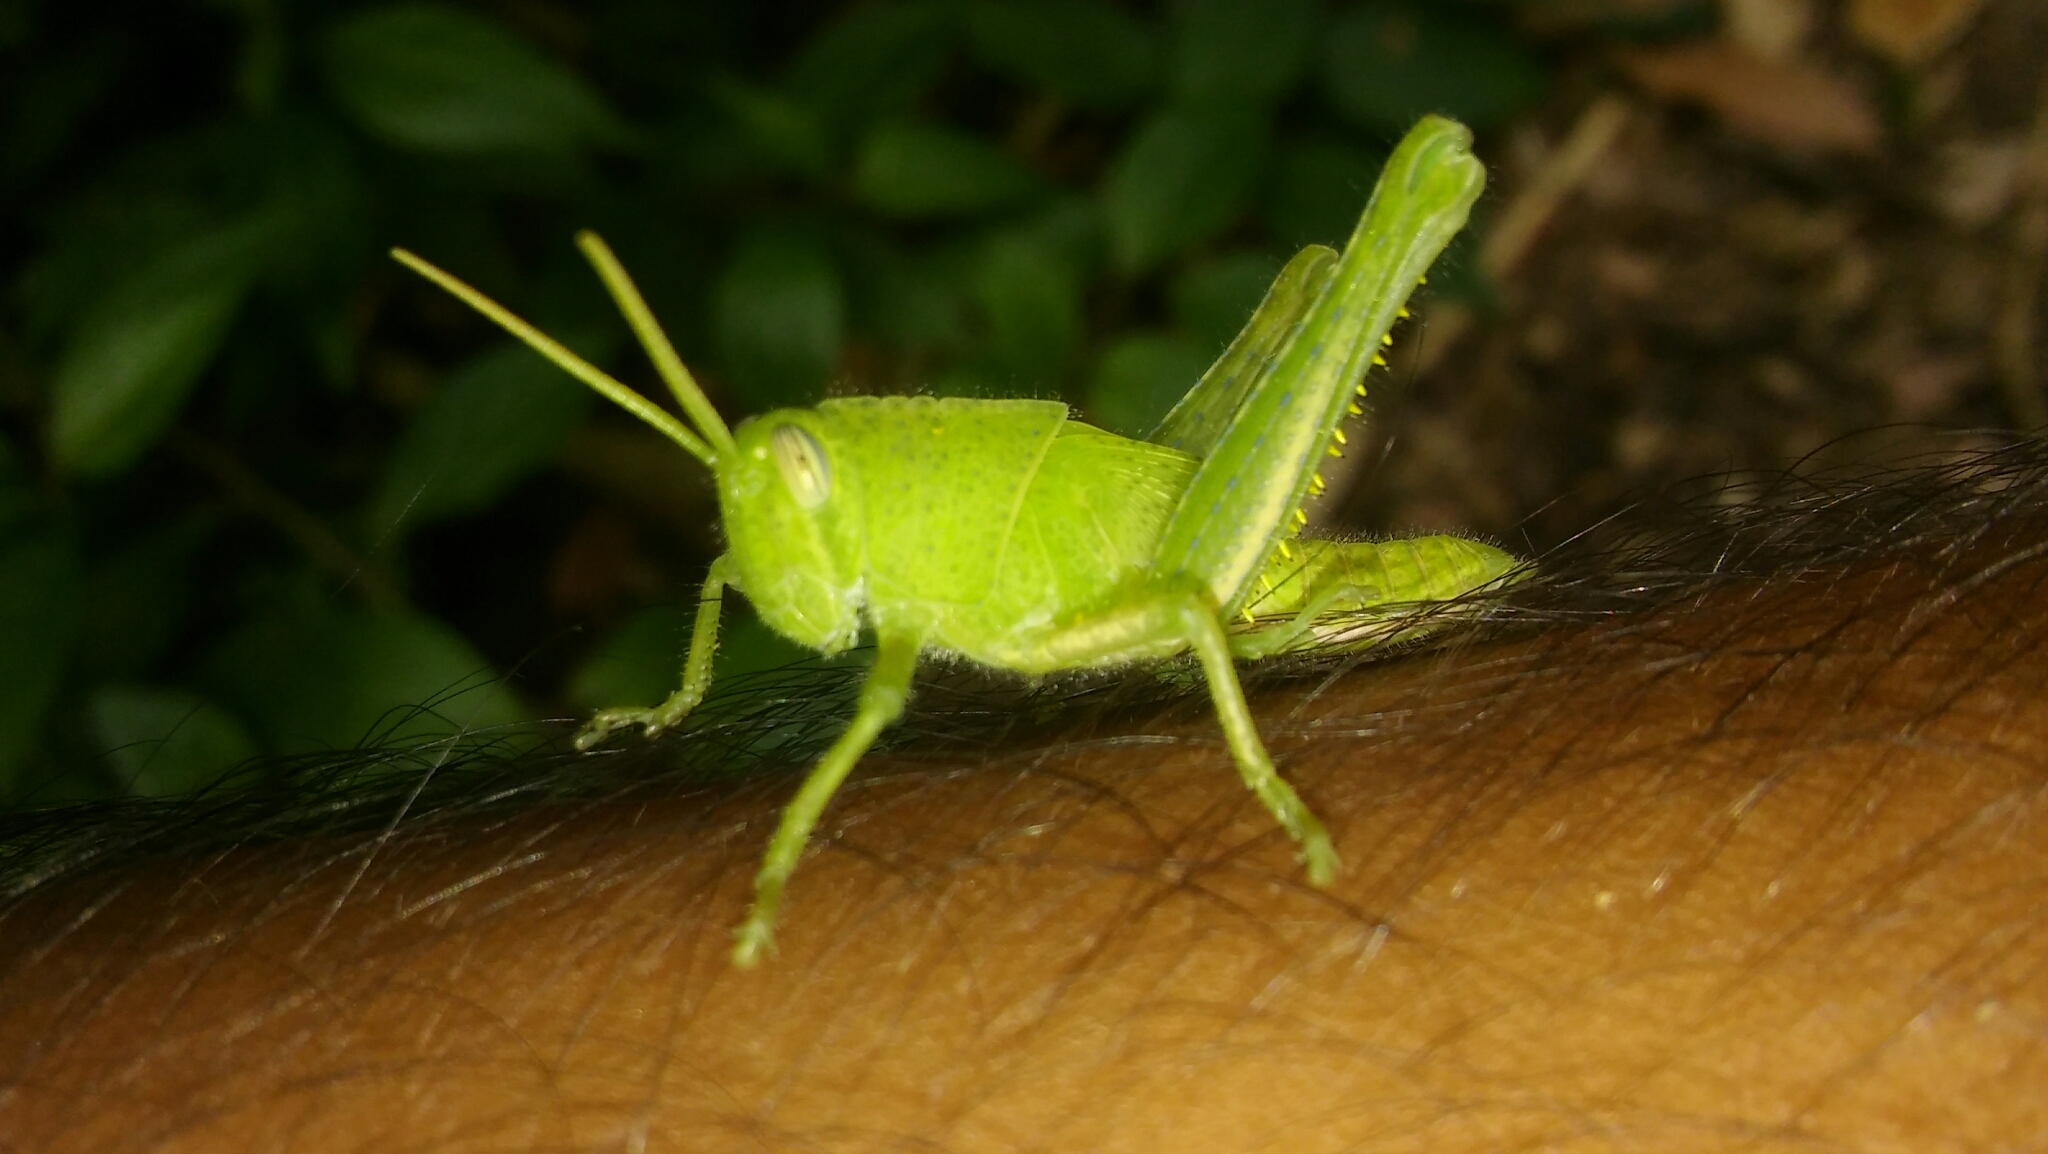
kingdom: Animalia
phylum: Arthropoda
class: Insecta
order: Orthoptera
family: Acrididae
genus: Schistocerca
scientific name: Schistocerca flavofasciata
